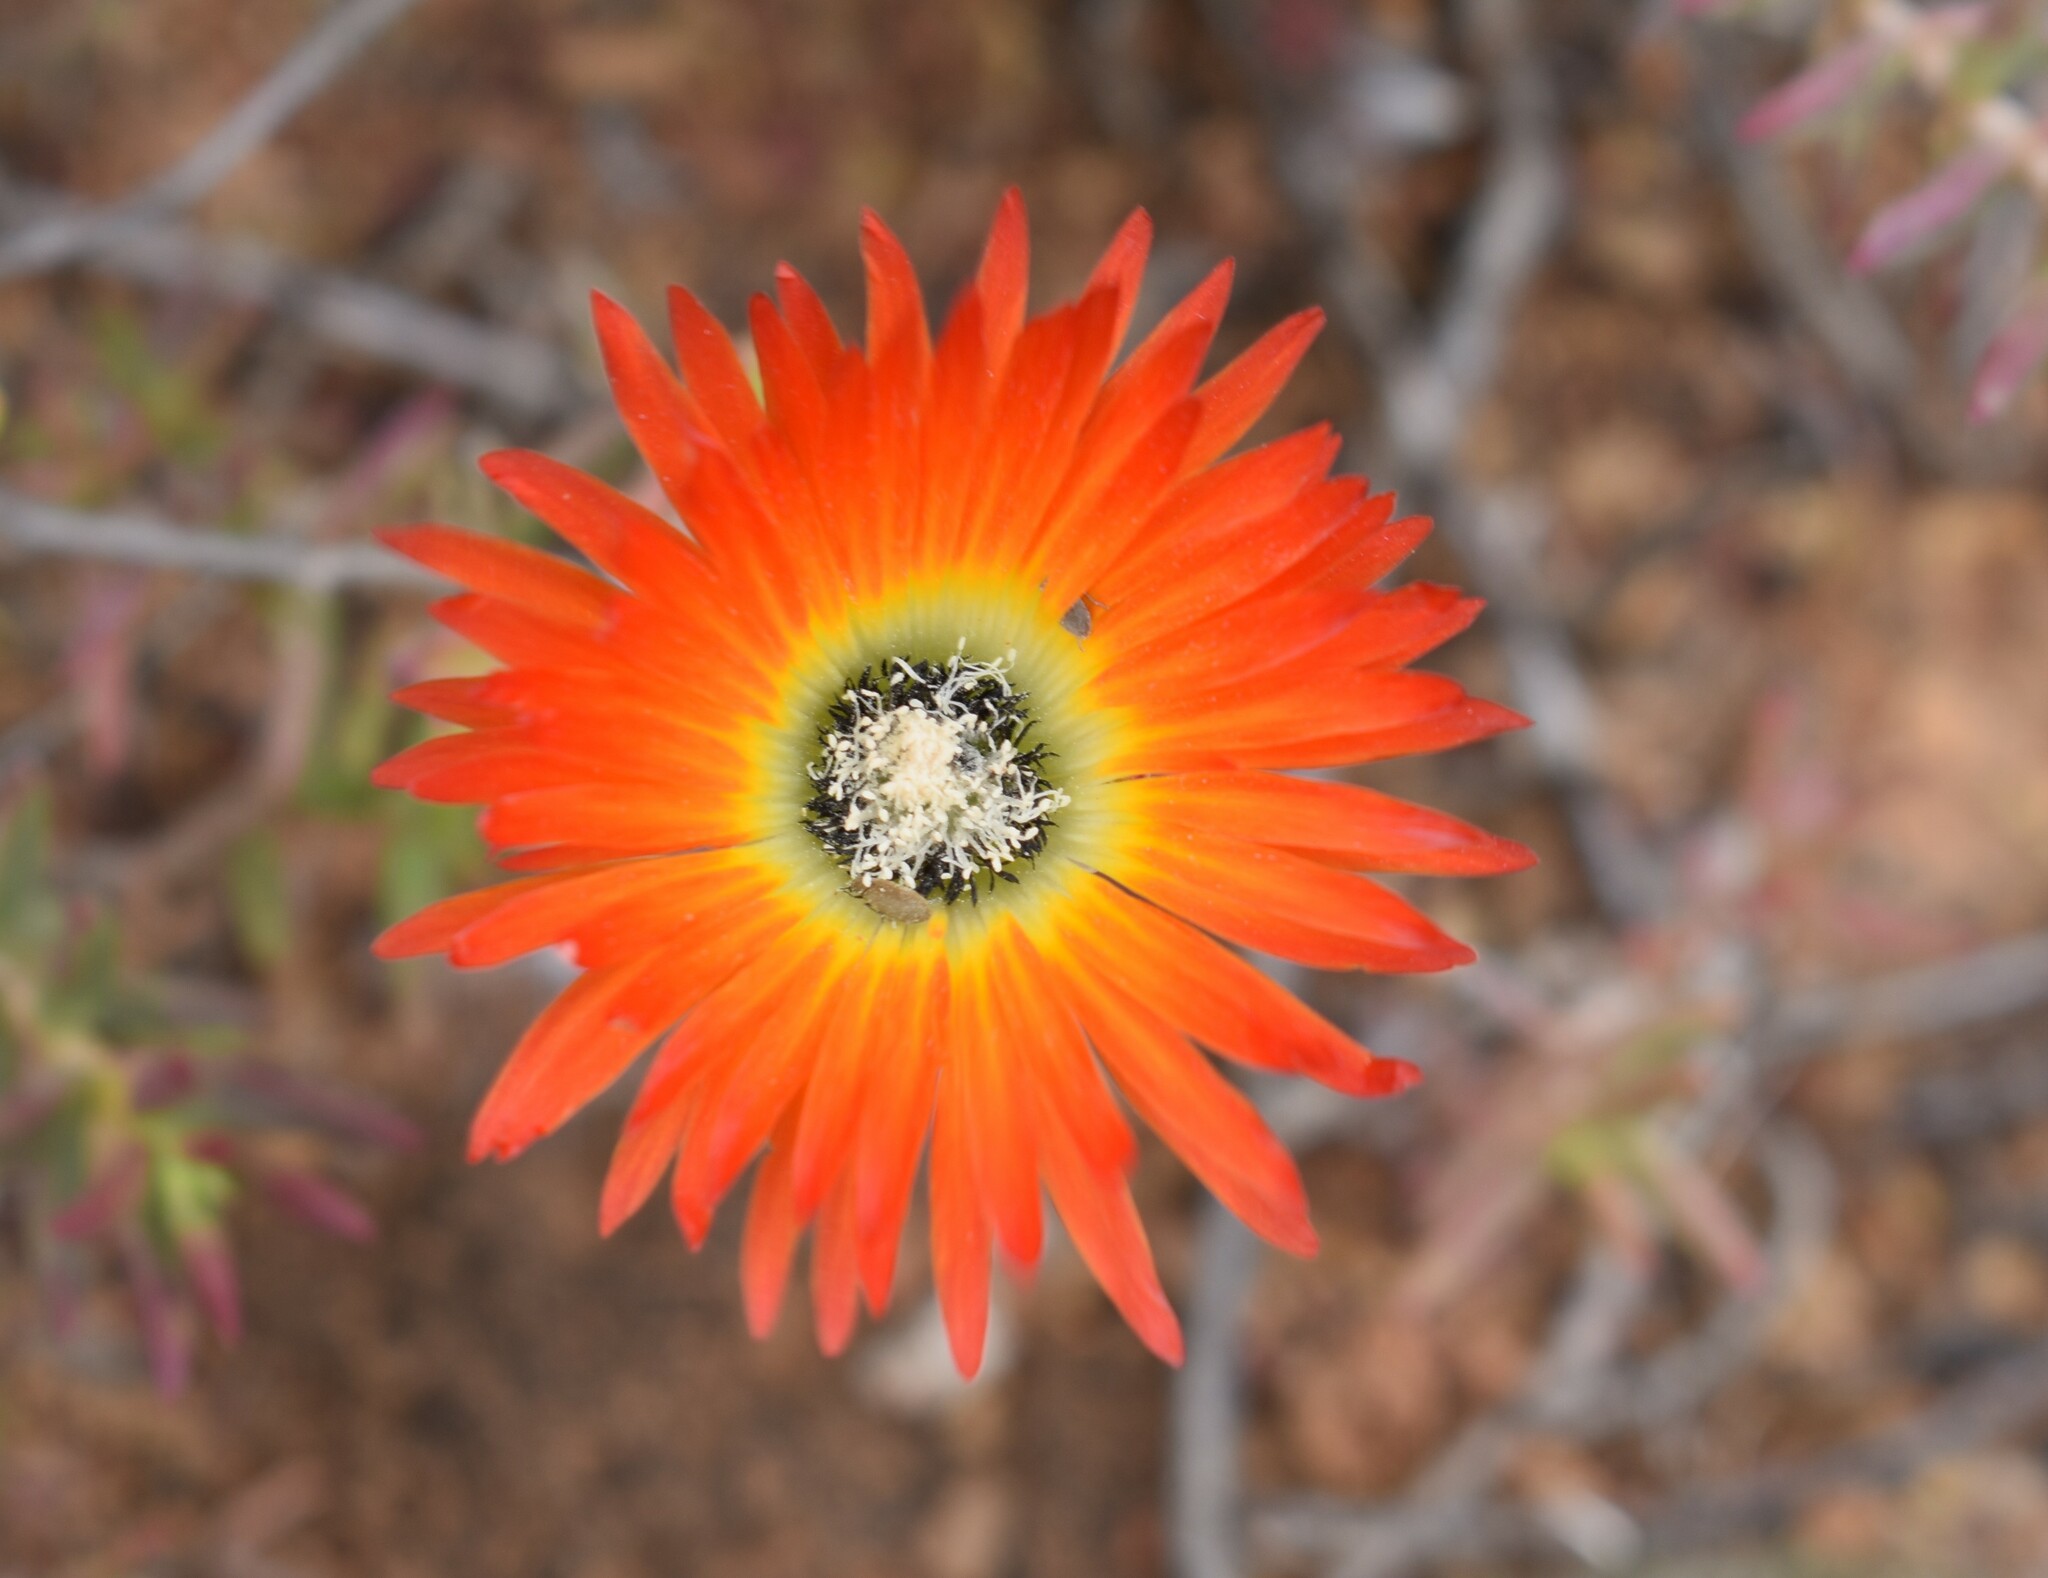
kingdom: Plantae
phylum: Tracheophyta
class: Magnoliopsida
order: Caryophyllales
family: Aizoaceae
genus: Drosanthemum
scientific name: Drosanthemum speciosum
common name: Royal dewflower
